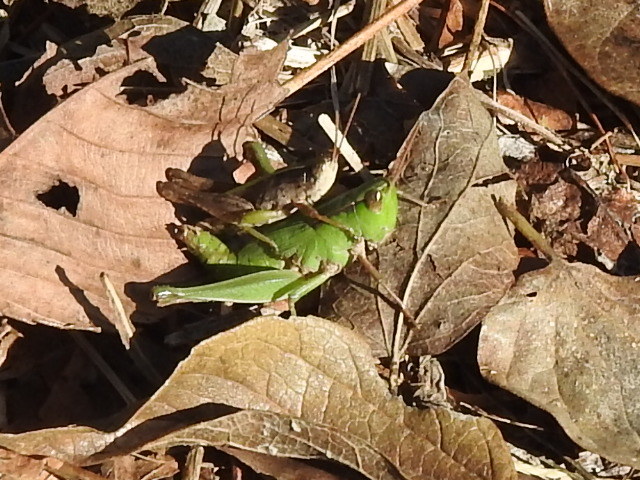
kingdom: Animalia
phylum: Arthropoda
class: Insecta
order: Orthoptera
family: Acrididae
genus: Dichromorpha
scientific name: Dichromorpha viridis
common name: Short-winged green grasshopper
